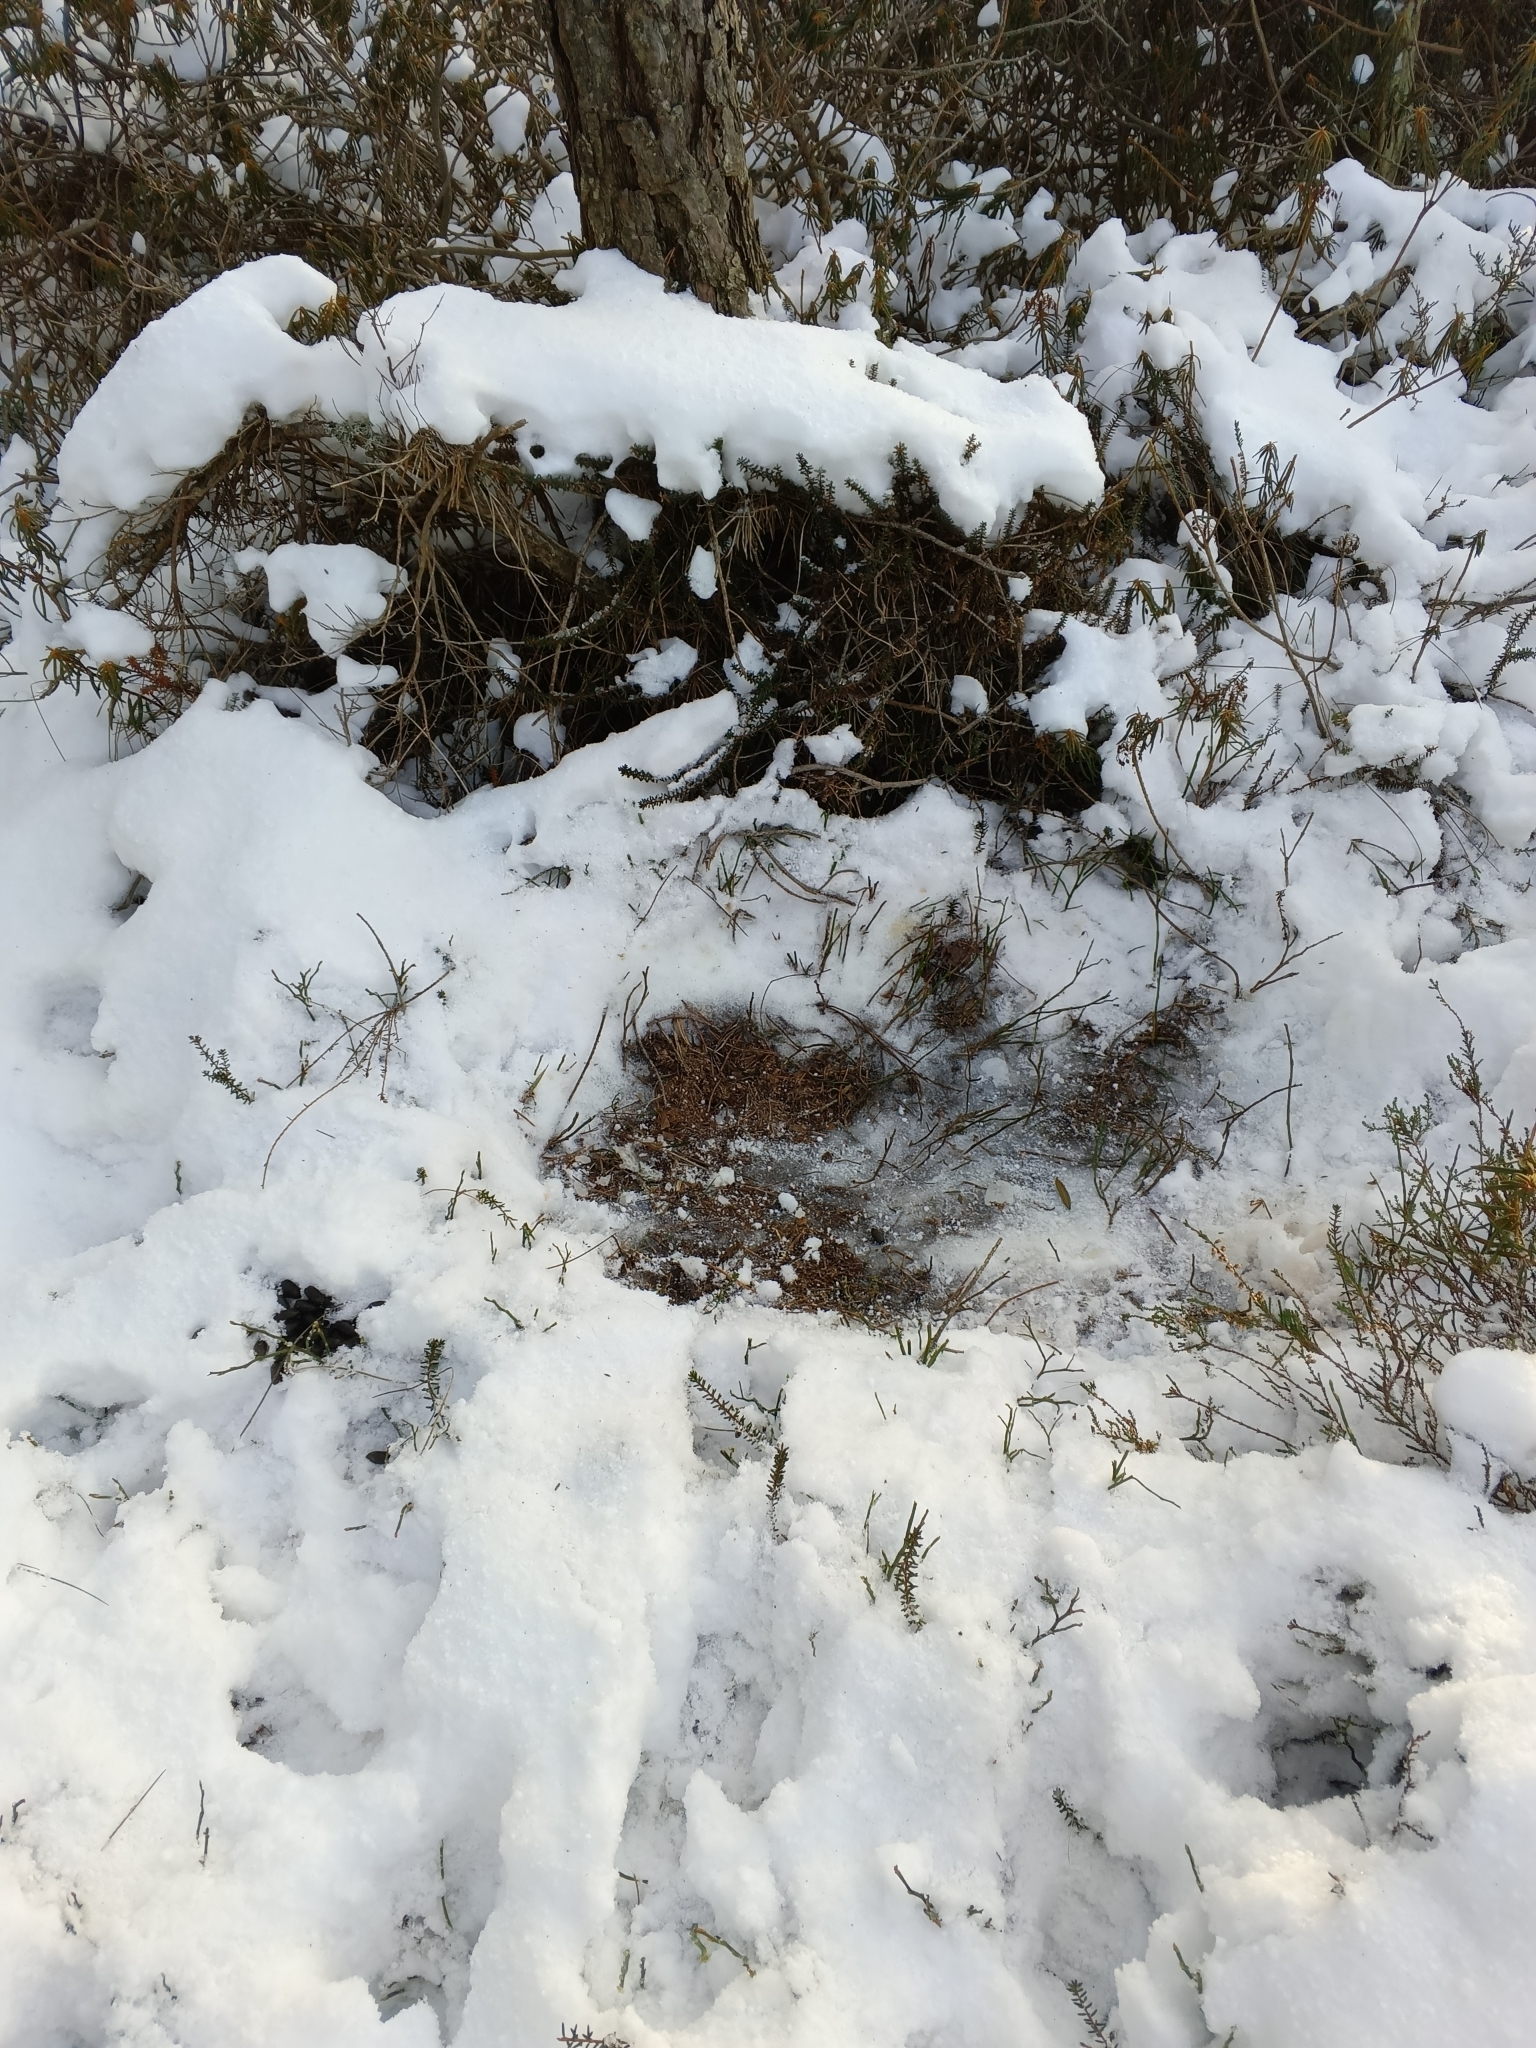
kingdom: Animalia
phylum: Chordata
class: Mammalia
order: Artiodactyla
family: Cervidae
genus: Capreolus
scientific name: Capreolus capreolus
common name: Western roe deer
